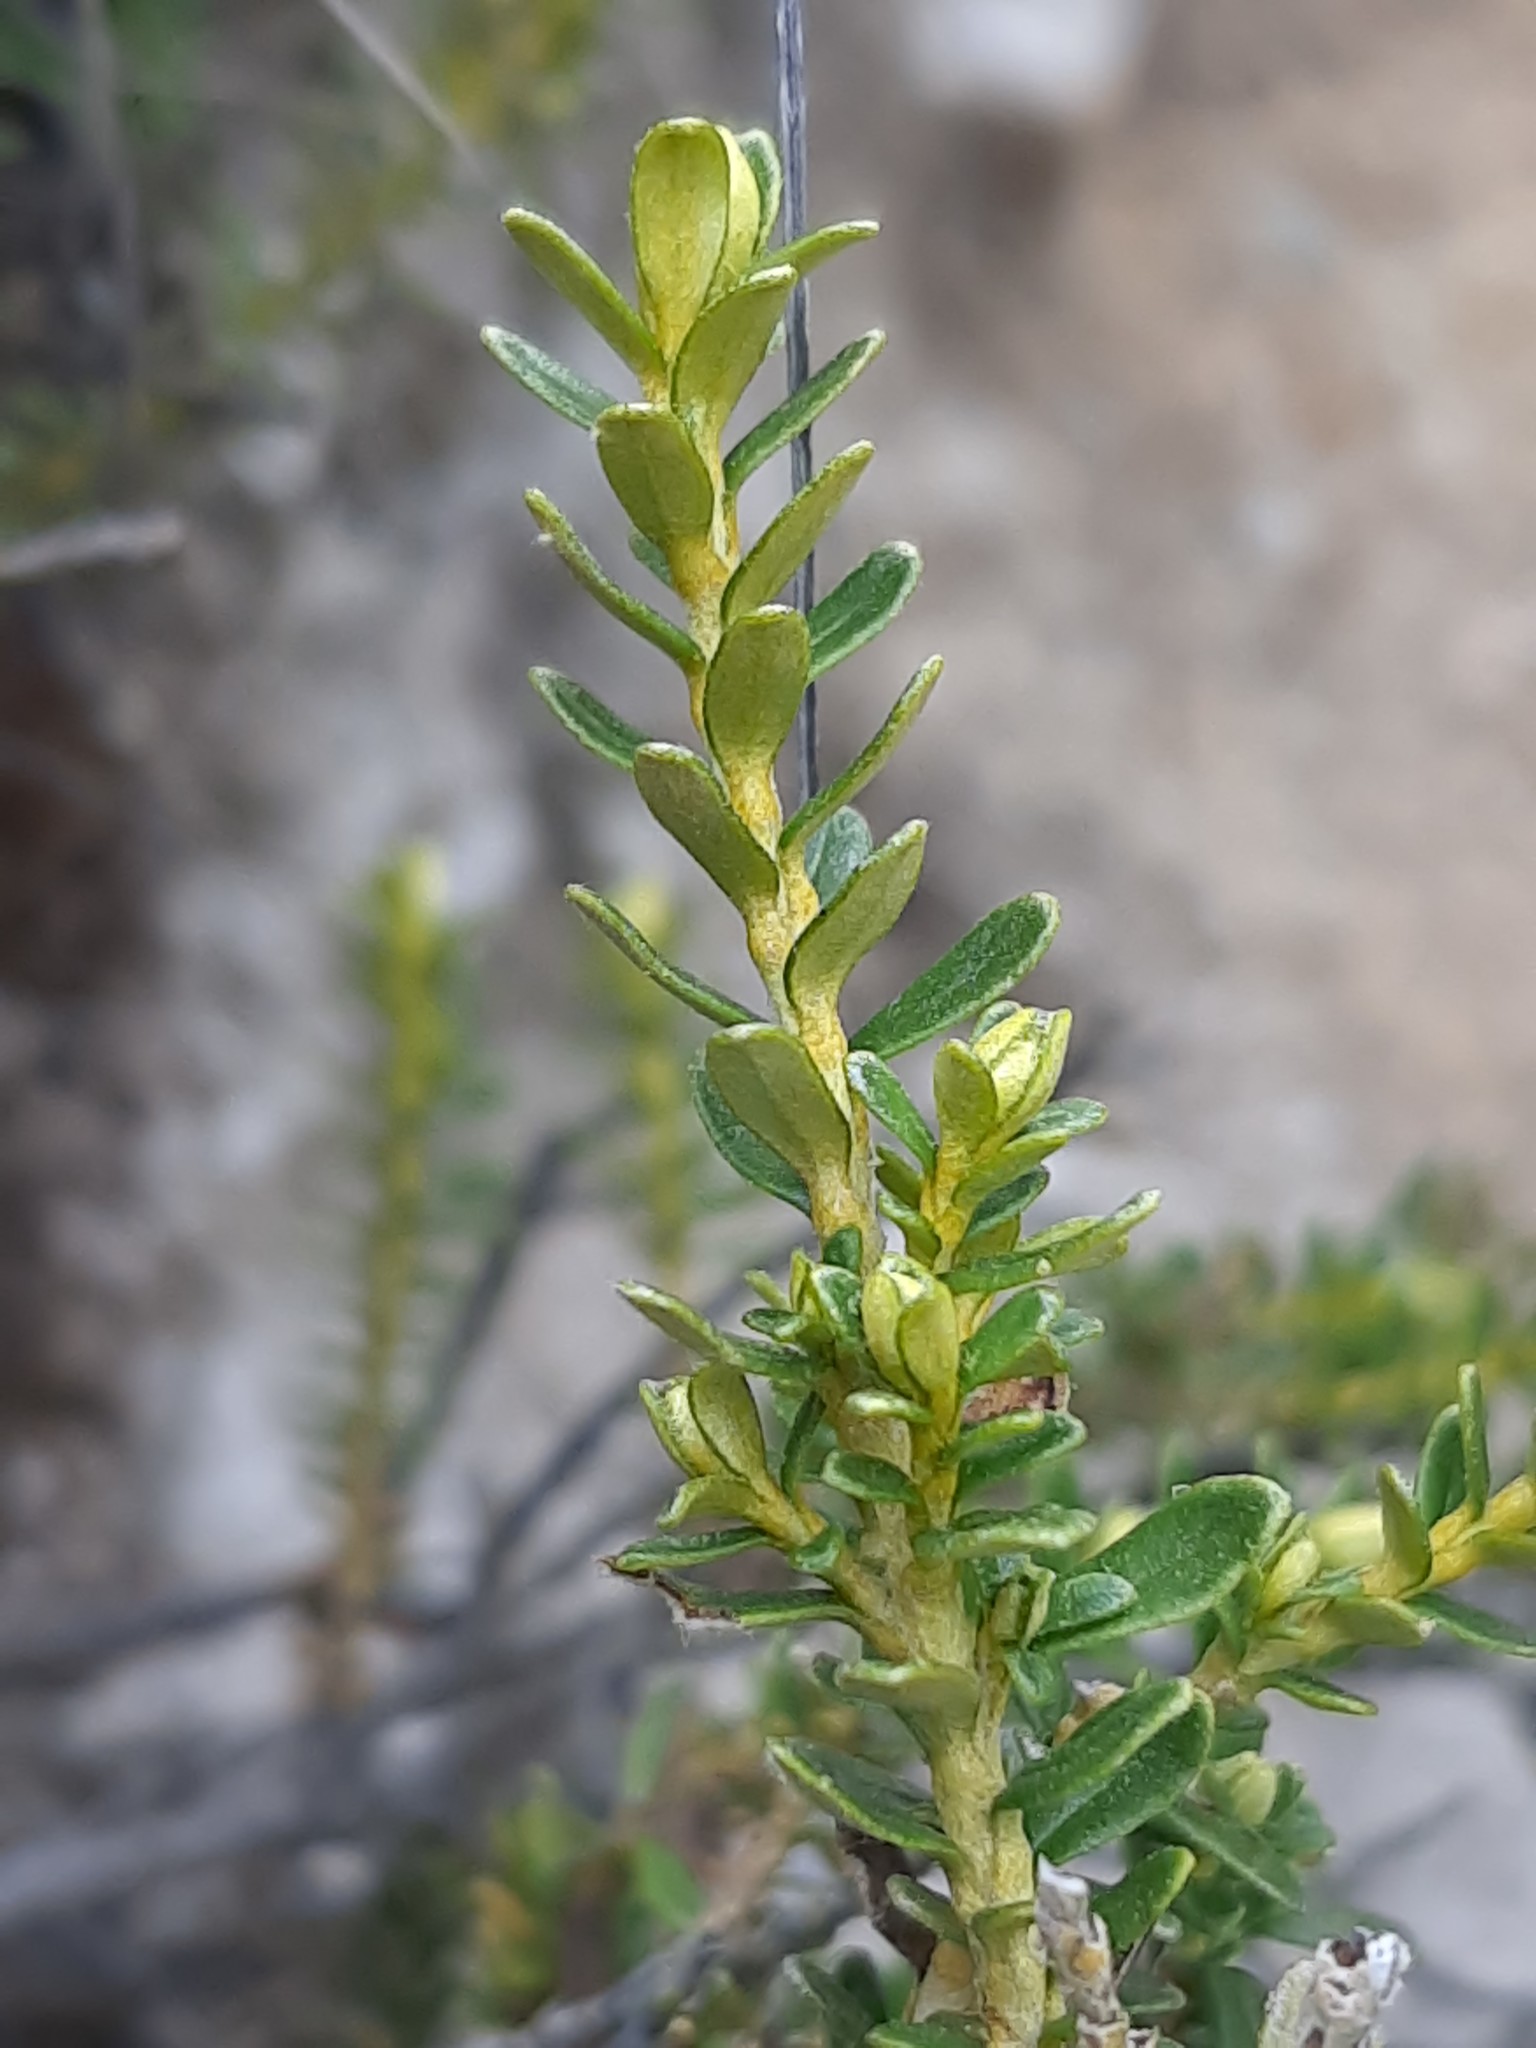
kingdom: Plantae
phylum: Tracheophyta
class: Magnoliopsida
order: Asterales
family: Asteraceae
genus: Ozothamnus
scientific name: Ozothamnus leptophyllus
